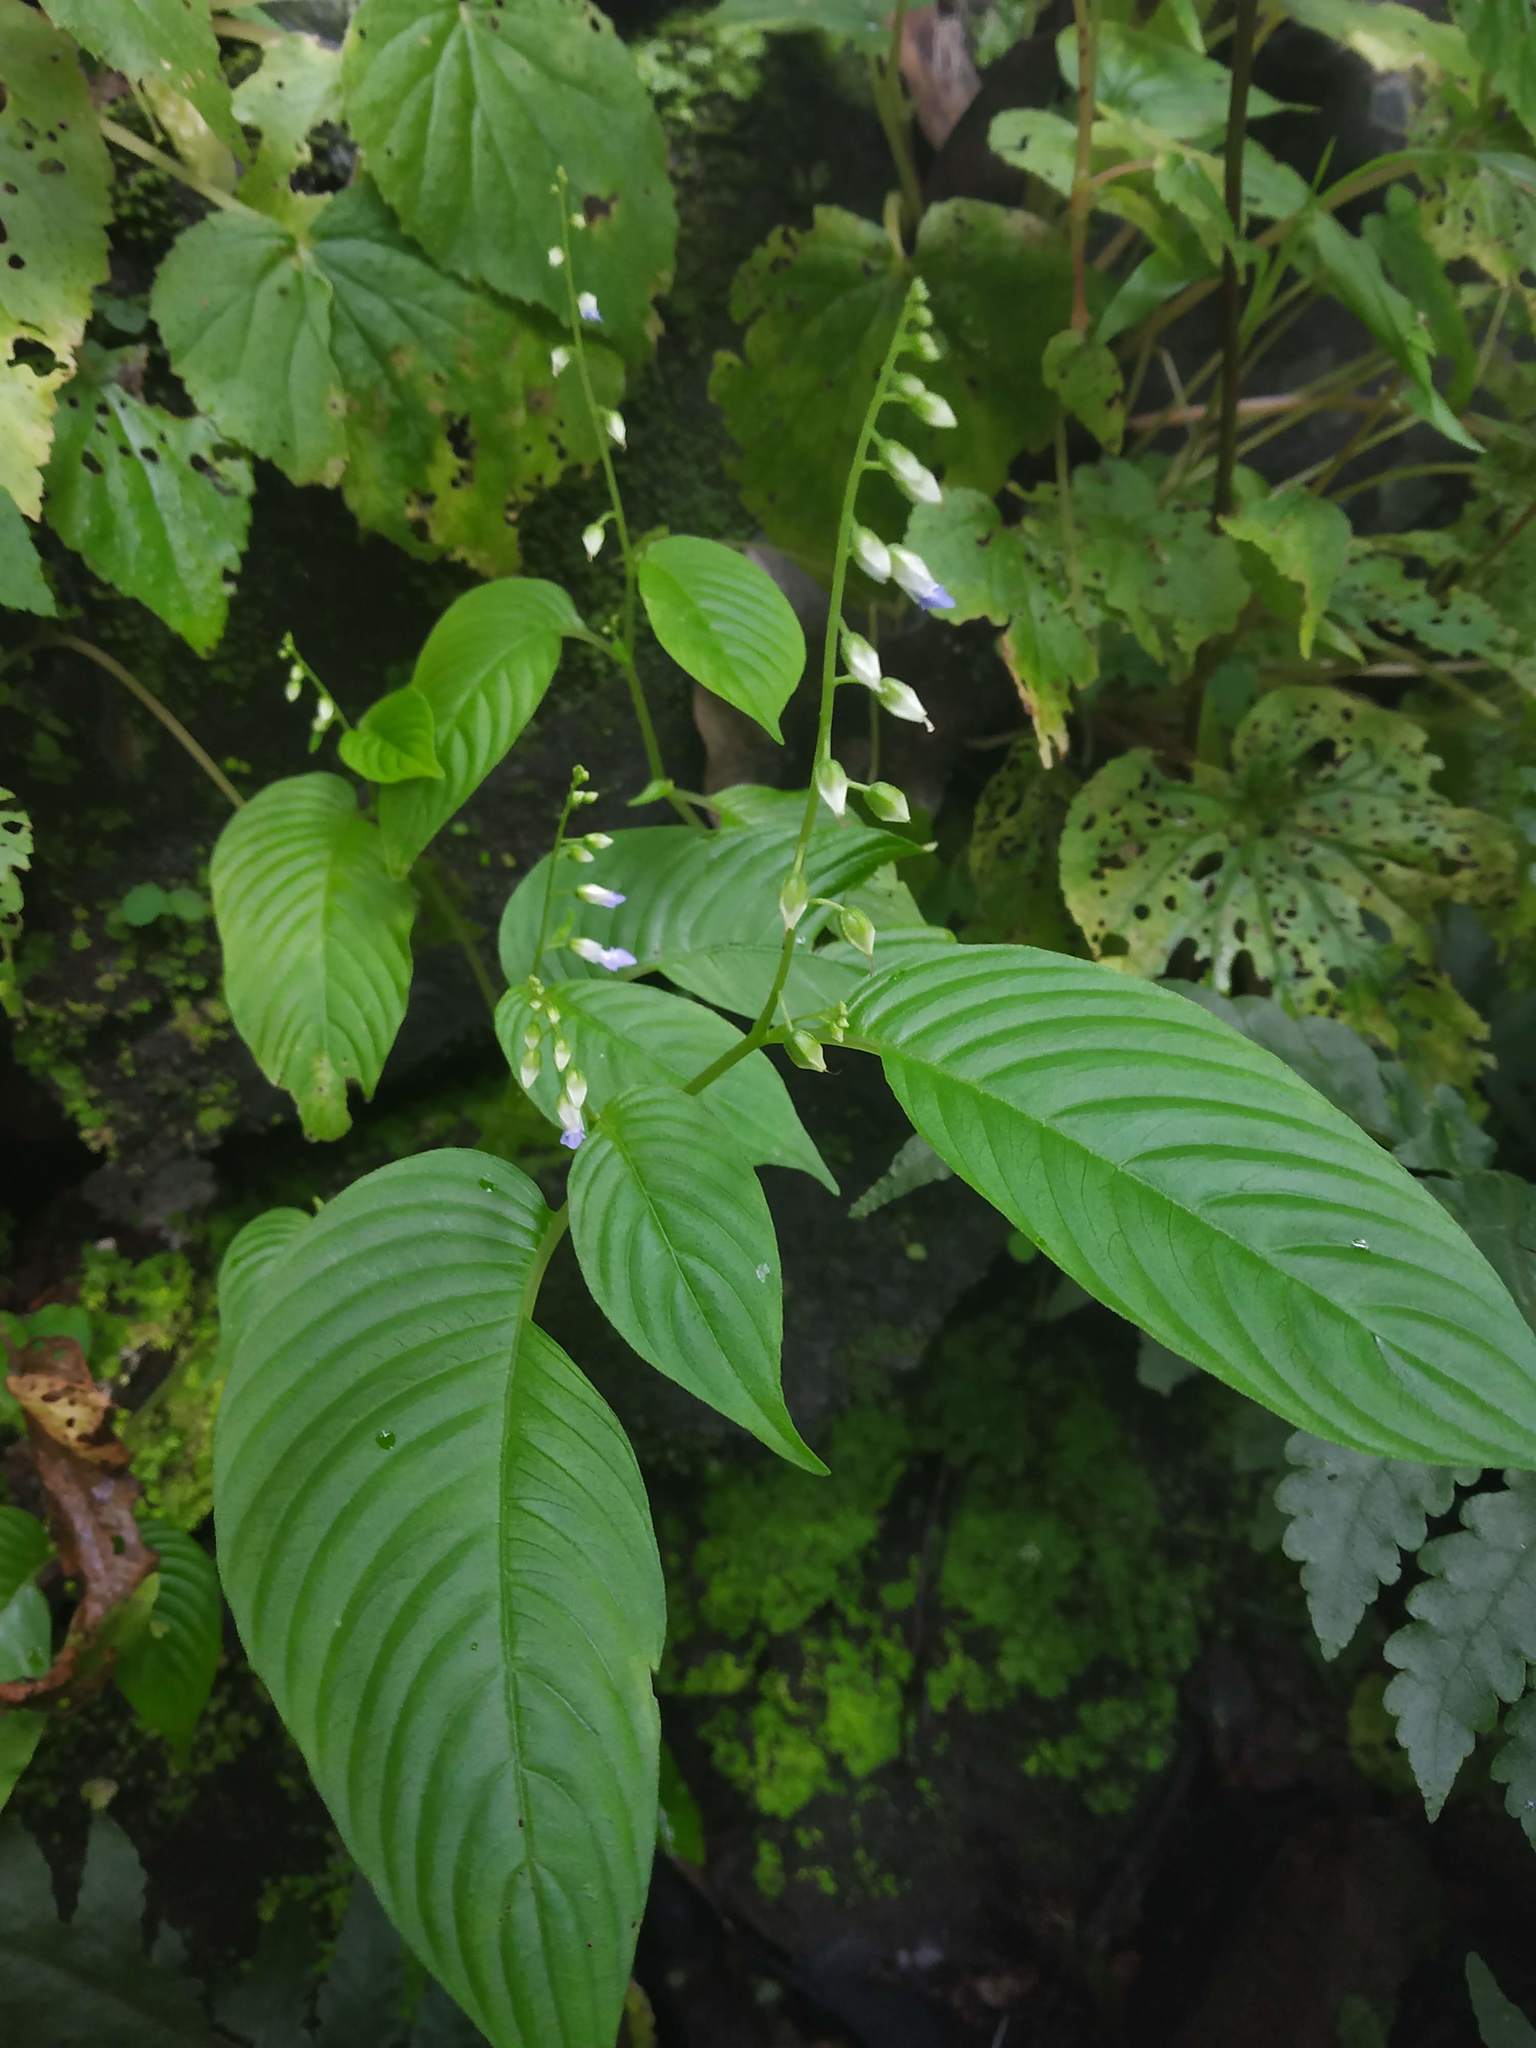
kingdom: Plantae
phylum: Tracheophyta
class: Magnoliopsida
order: Lamiales
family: Gesneriaceae
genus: Rhynchoglossum
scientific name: Rhynchoglossum obliquum
